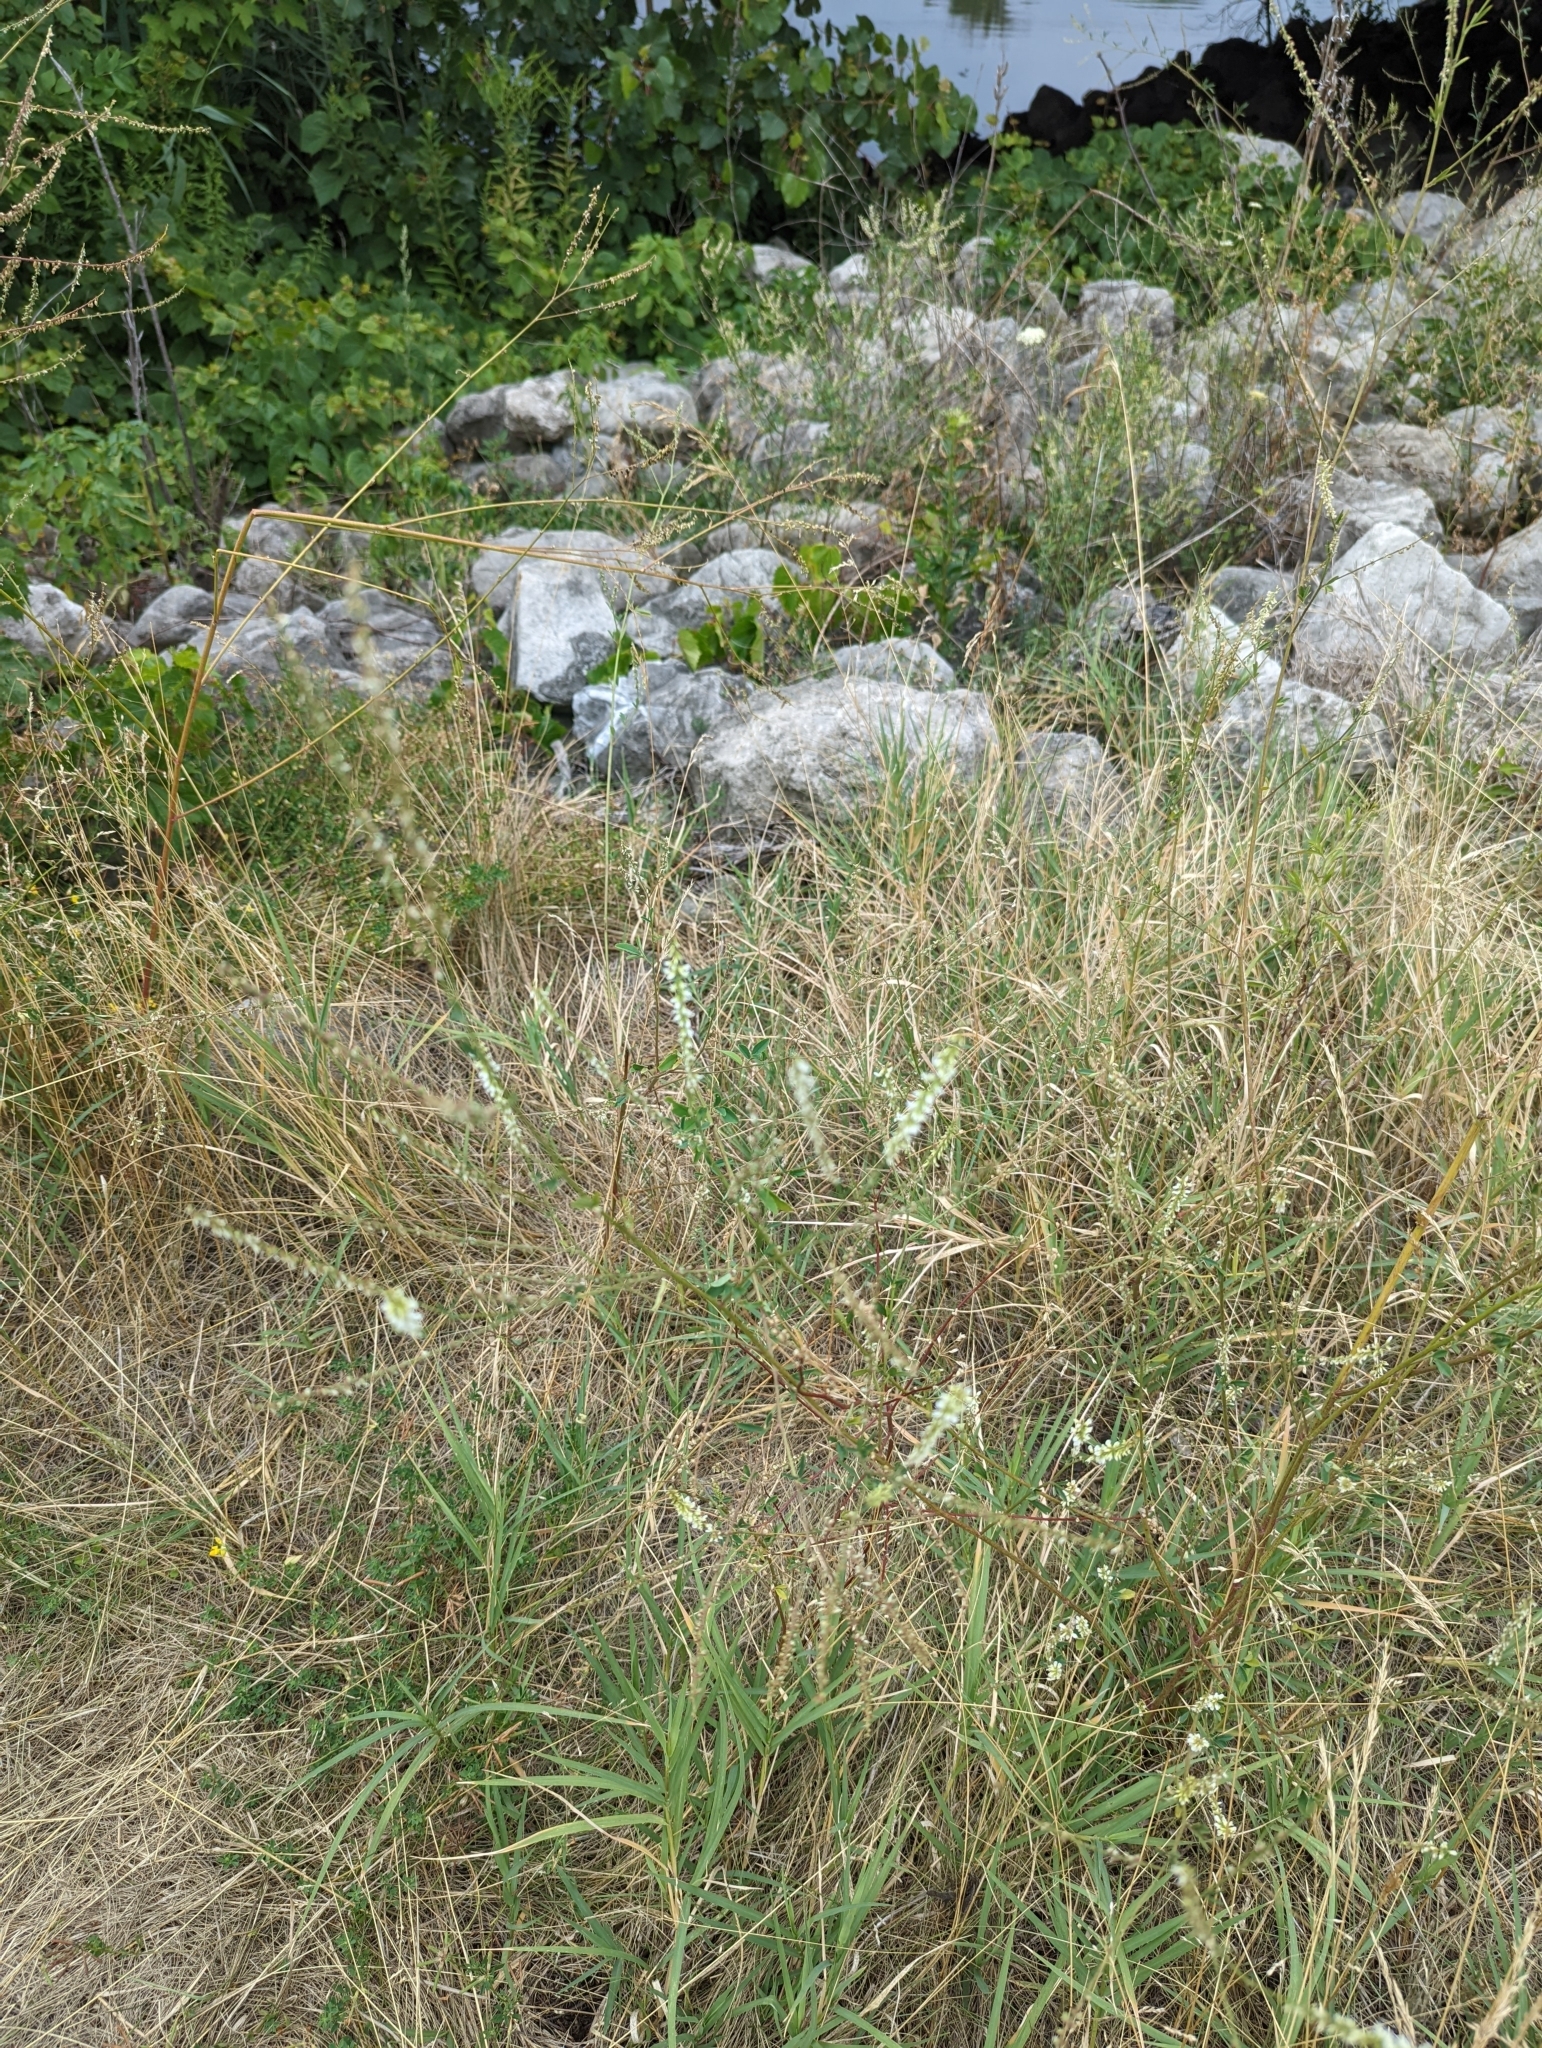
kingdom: Plantae
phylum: Tracheophyta
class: Magnoliopsida
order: Fabales
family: Fabaceae
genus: Melilotus
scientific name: Melilotus albus
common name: White melilot
